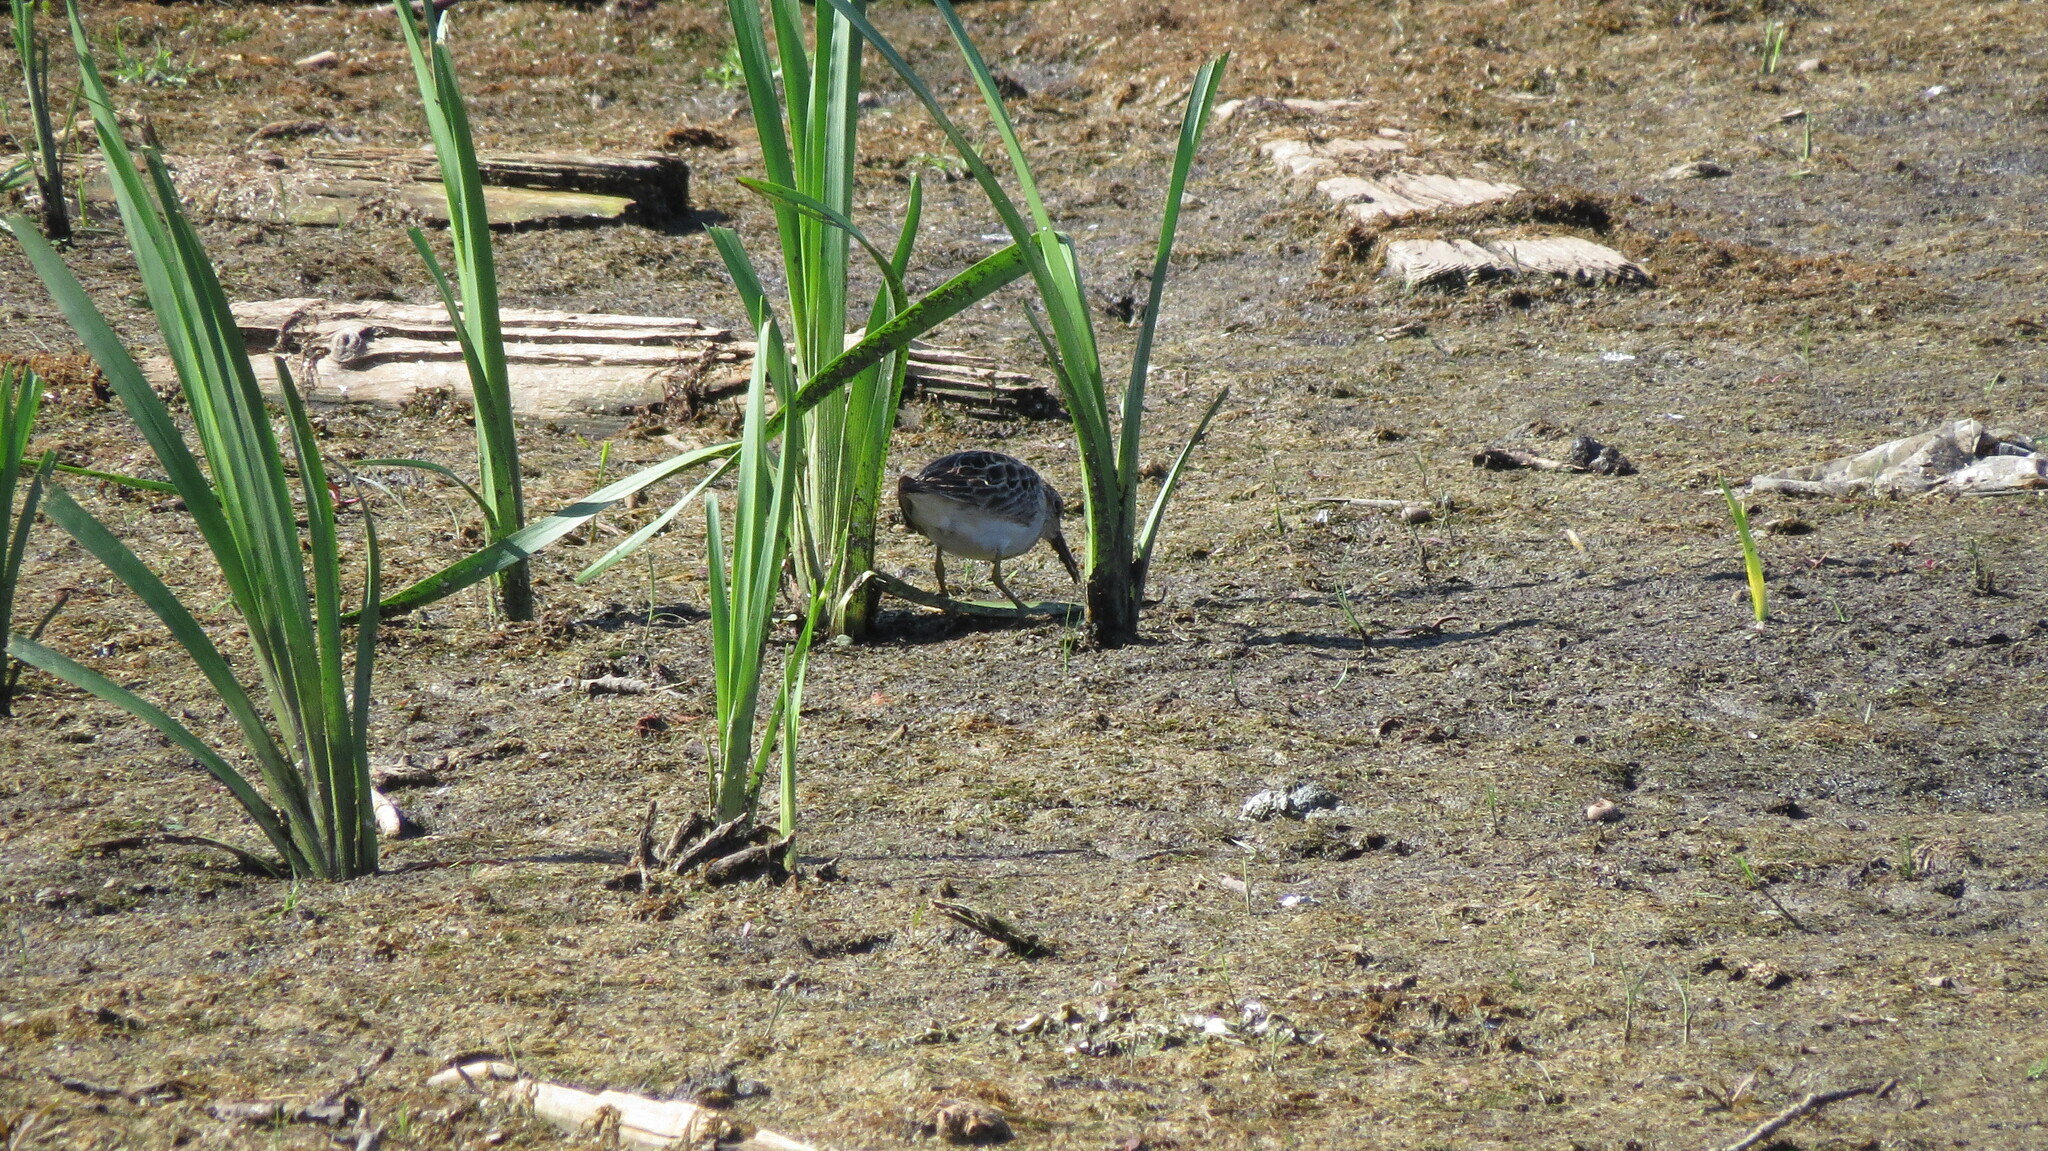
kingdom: Animalia
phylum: Chordata
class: Aves
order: Charadriiformes
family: Scolopacidae
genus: Calidris
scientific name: Calidris melanotos
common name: Pectoral sandpiper
